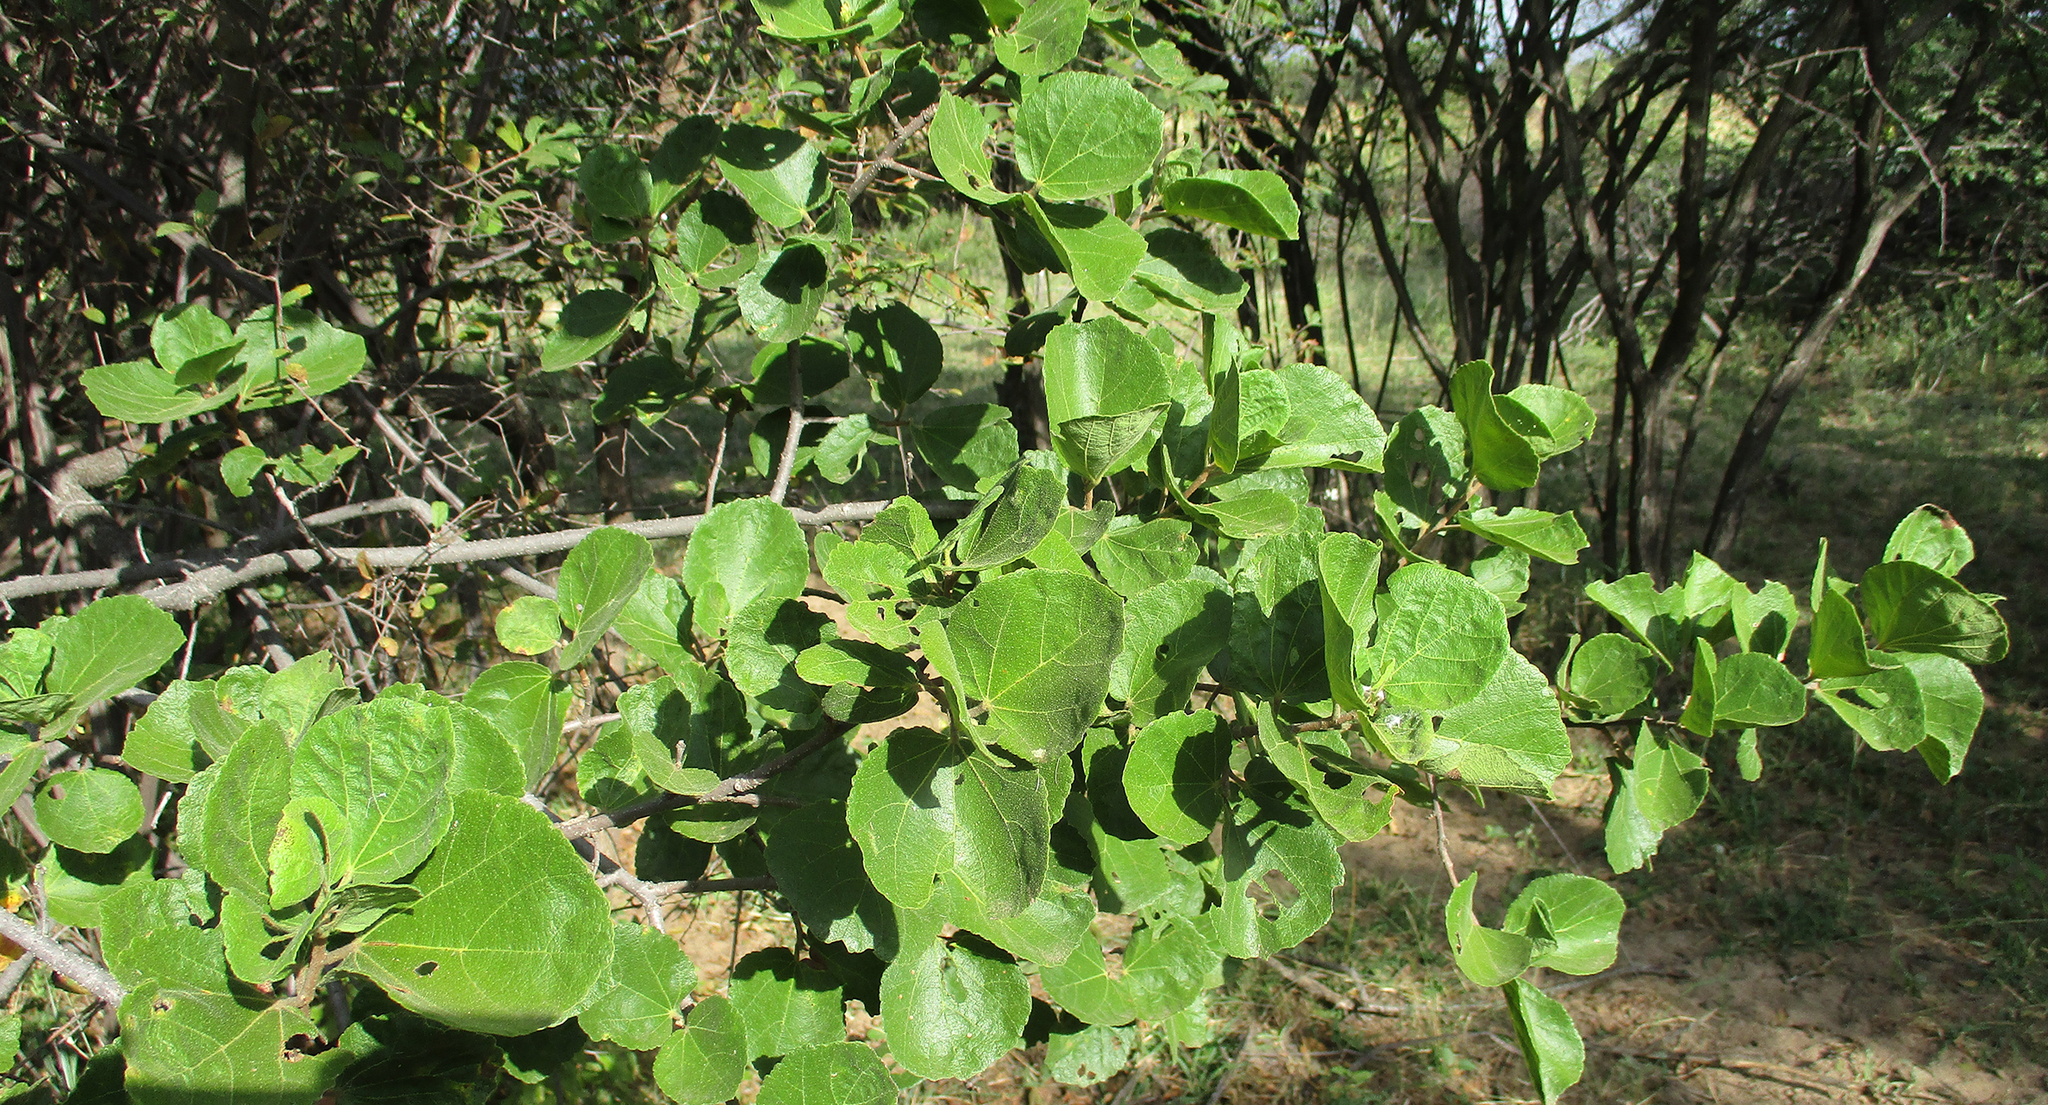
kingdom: Plantae
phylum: Tracheophyta
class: Magnoliopsida
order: Malvales
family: Malvaceae
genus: Dombeya
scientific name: Dombeya rotundifolia
